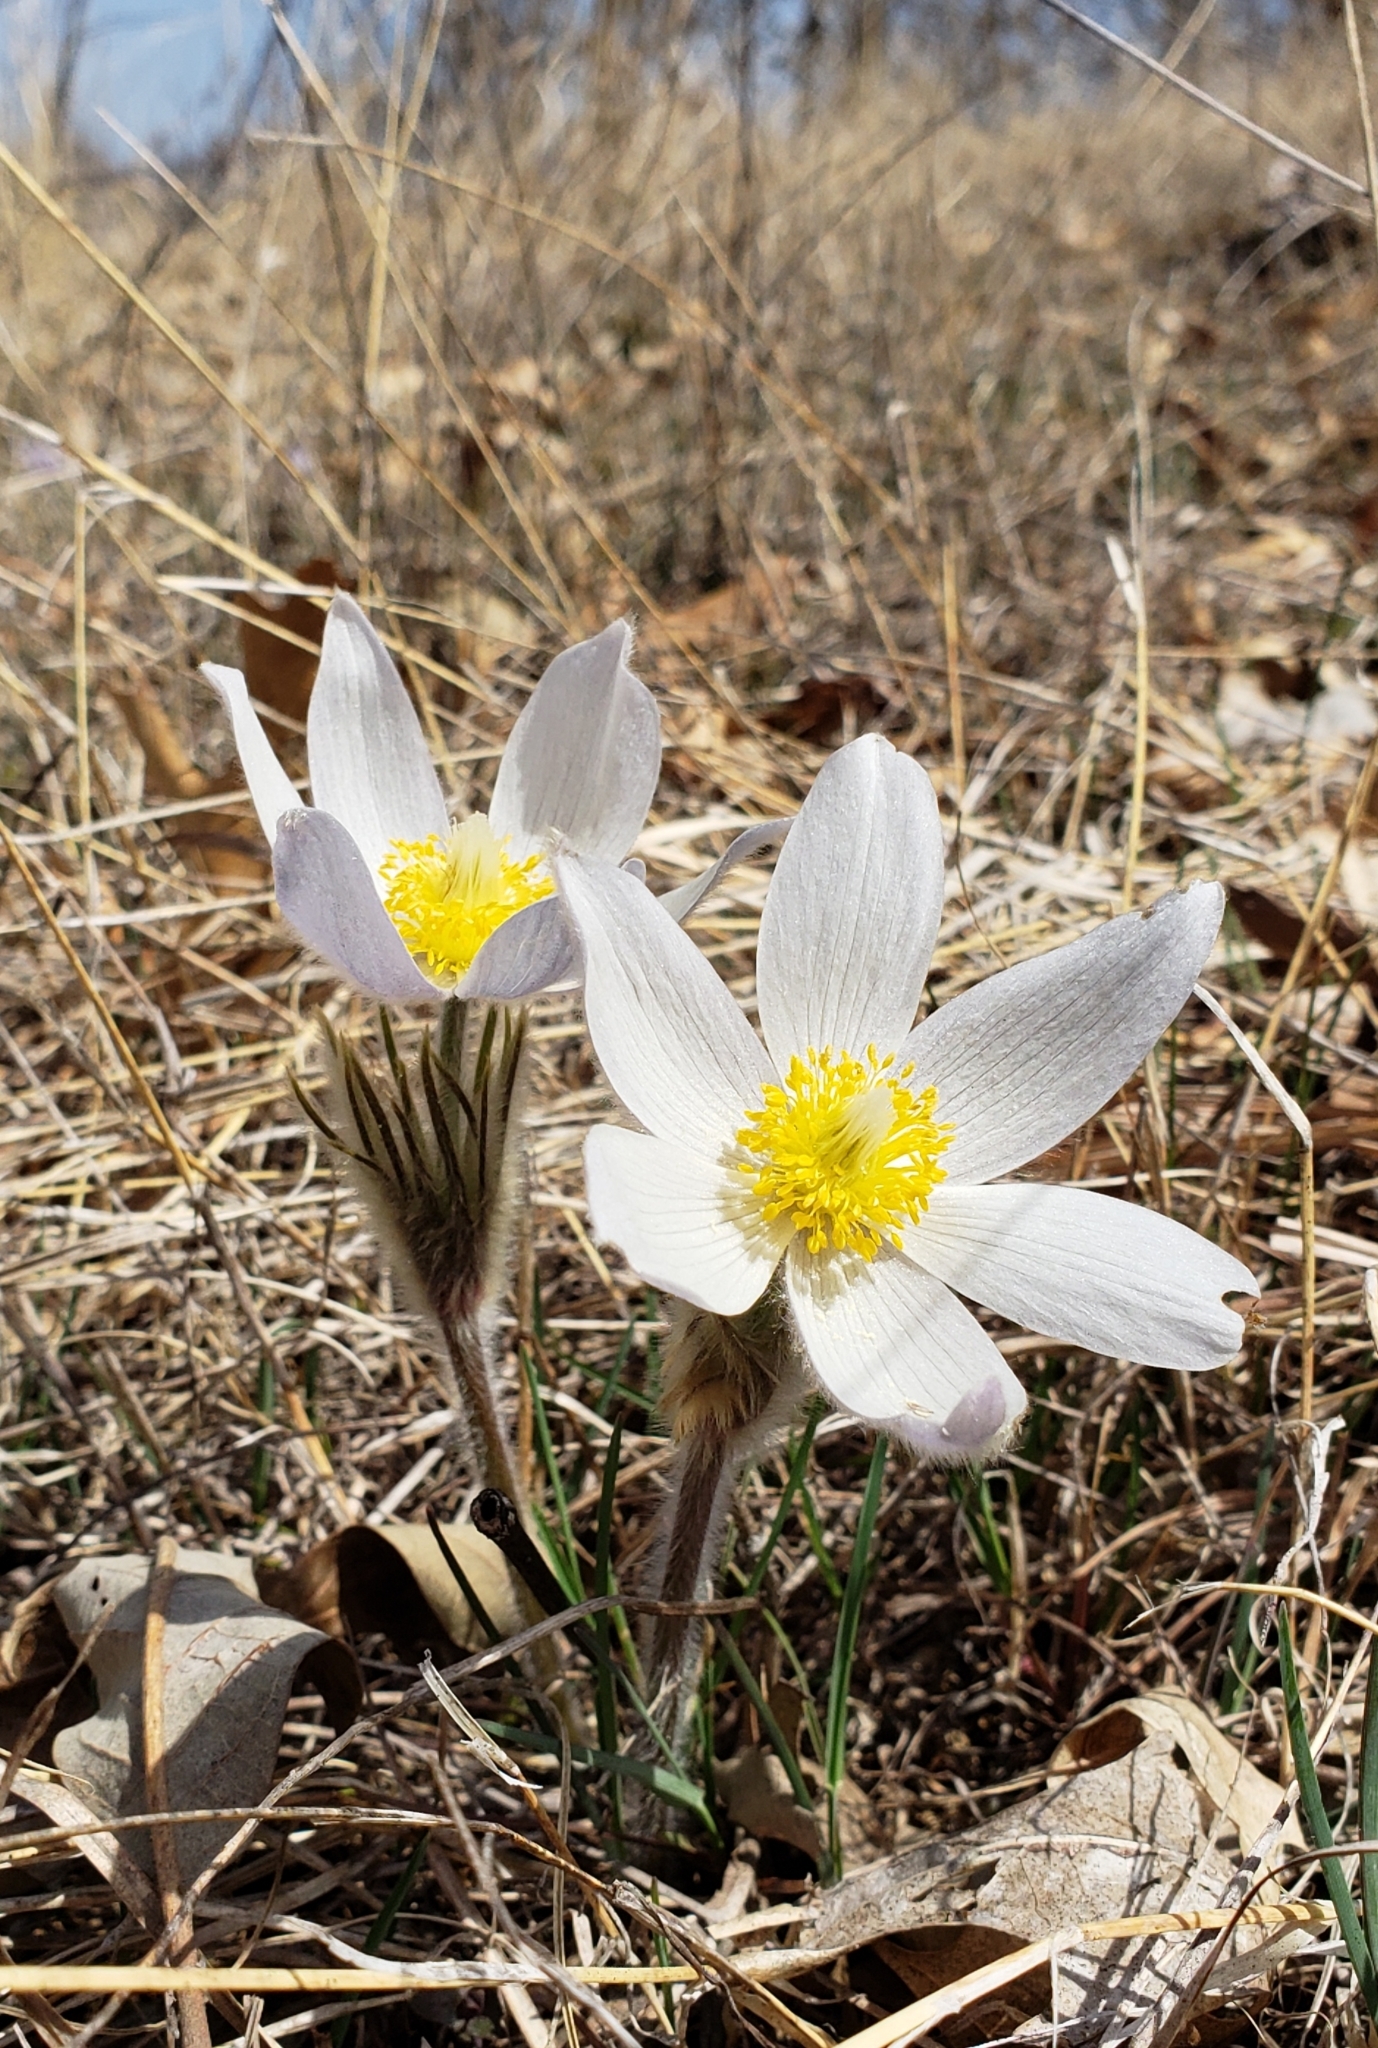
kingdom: Plantae
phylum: Tracheophyta
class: Magnoliopsida
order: Ranunculales
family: Ranunculaceae
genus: Pulsatilla
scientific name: Pulsatilla nuttalliana
